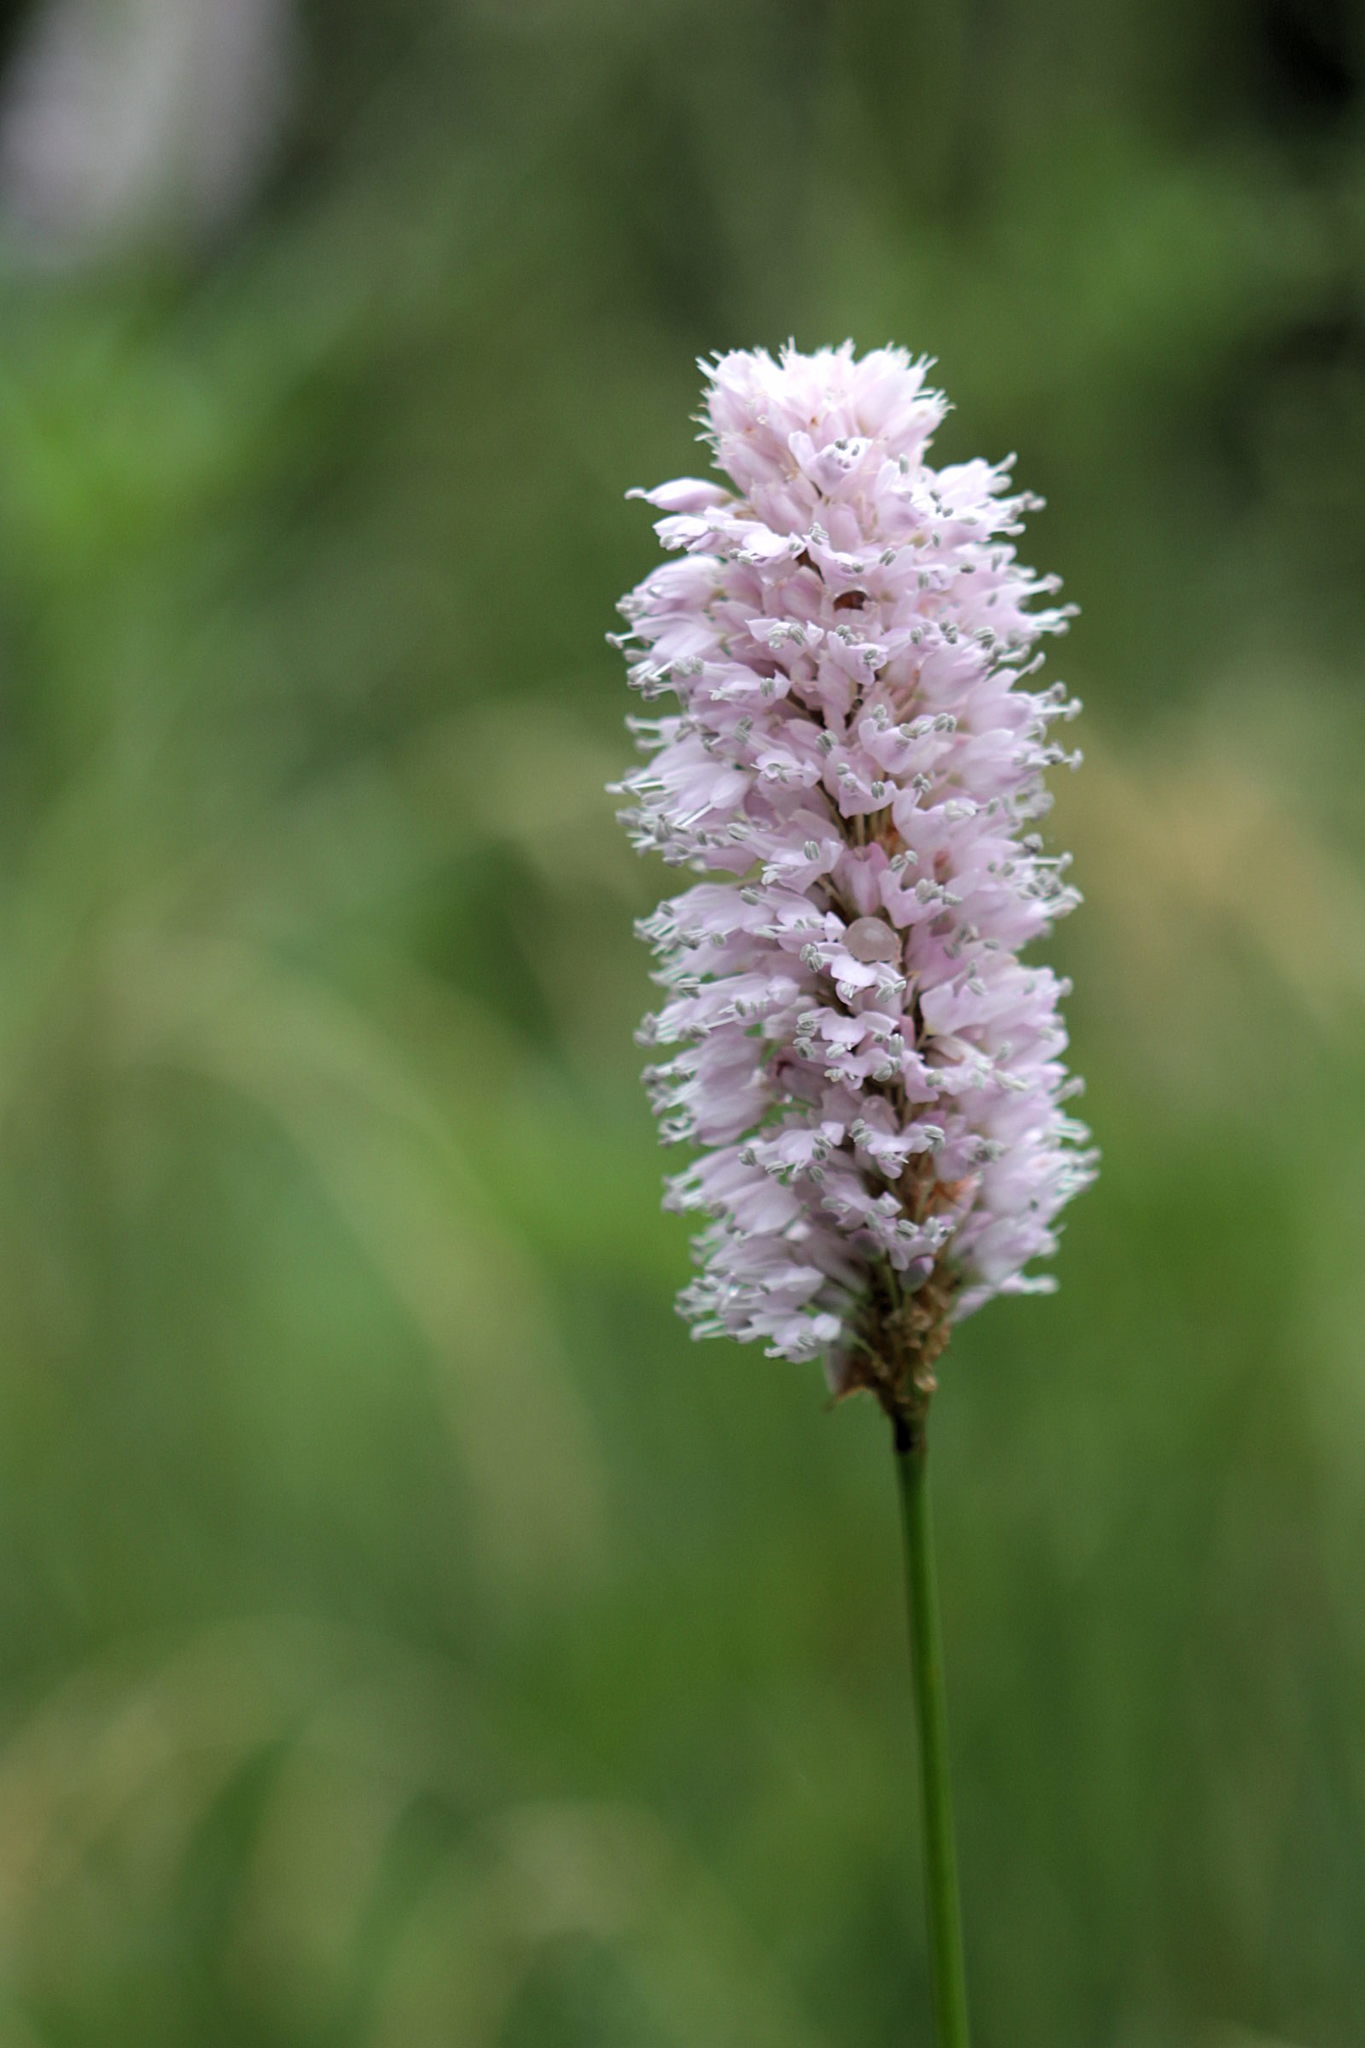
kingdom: Plantae
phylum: Tracheophyta
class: Magnoliopsida
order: Caryophyllales
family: Polygonaceae
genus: Bistorta
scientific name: Bistorta officinalis
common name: Common bistort
